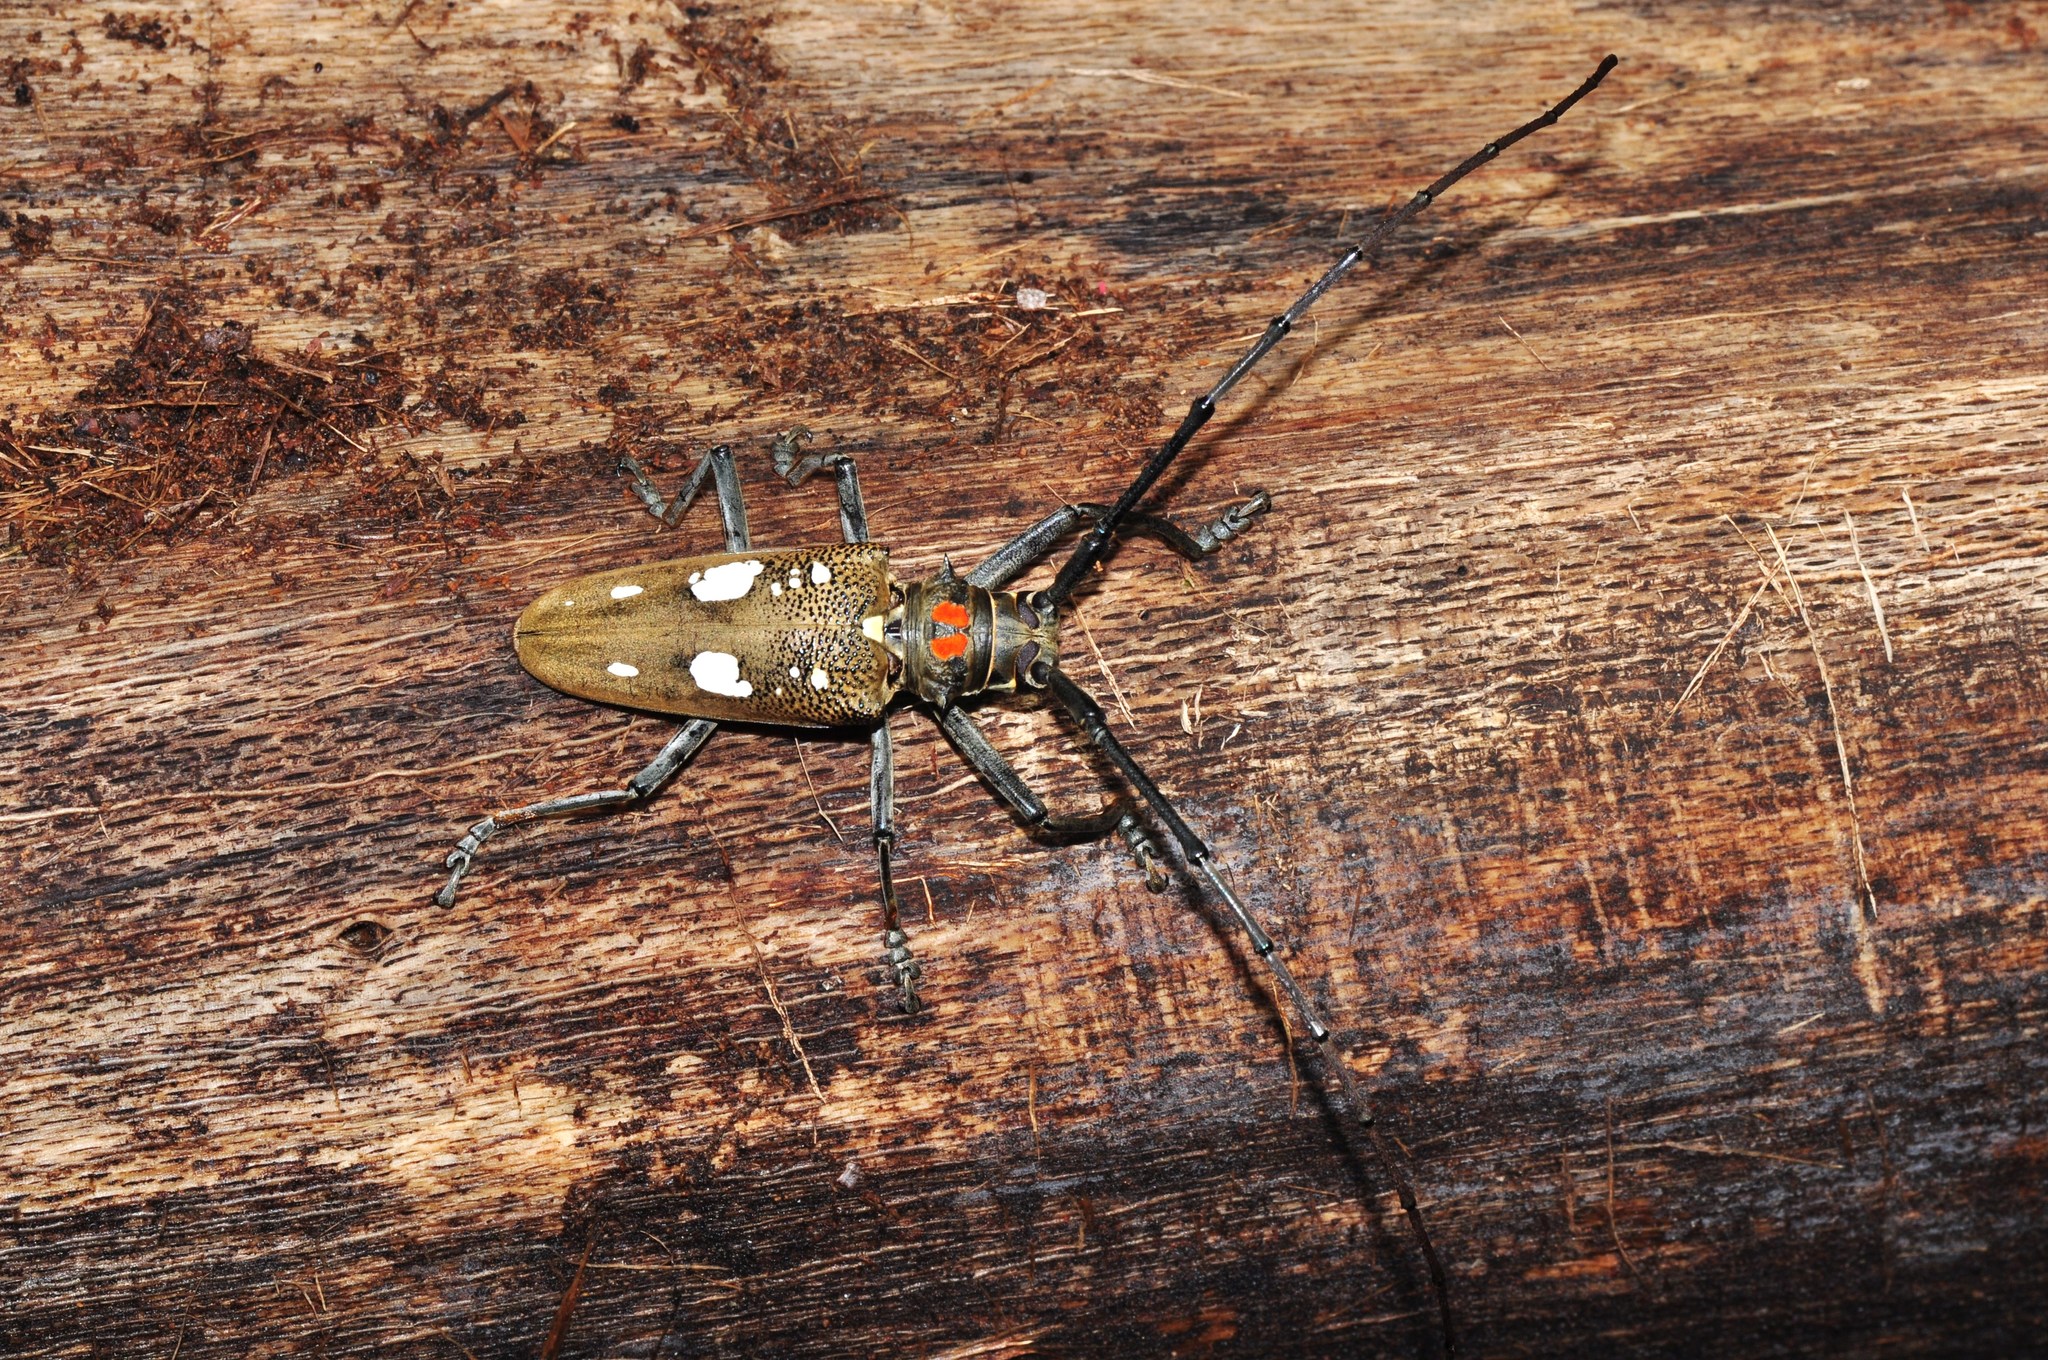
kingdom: Animalia
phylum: Arthropoda
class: Insecta
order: Coleoptera
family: Cerambycidae
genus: Batocera
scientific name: Batocera celebiana
